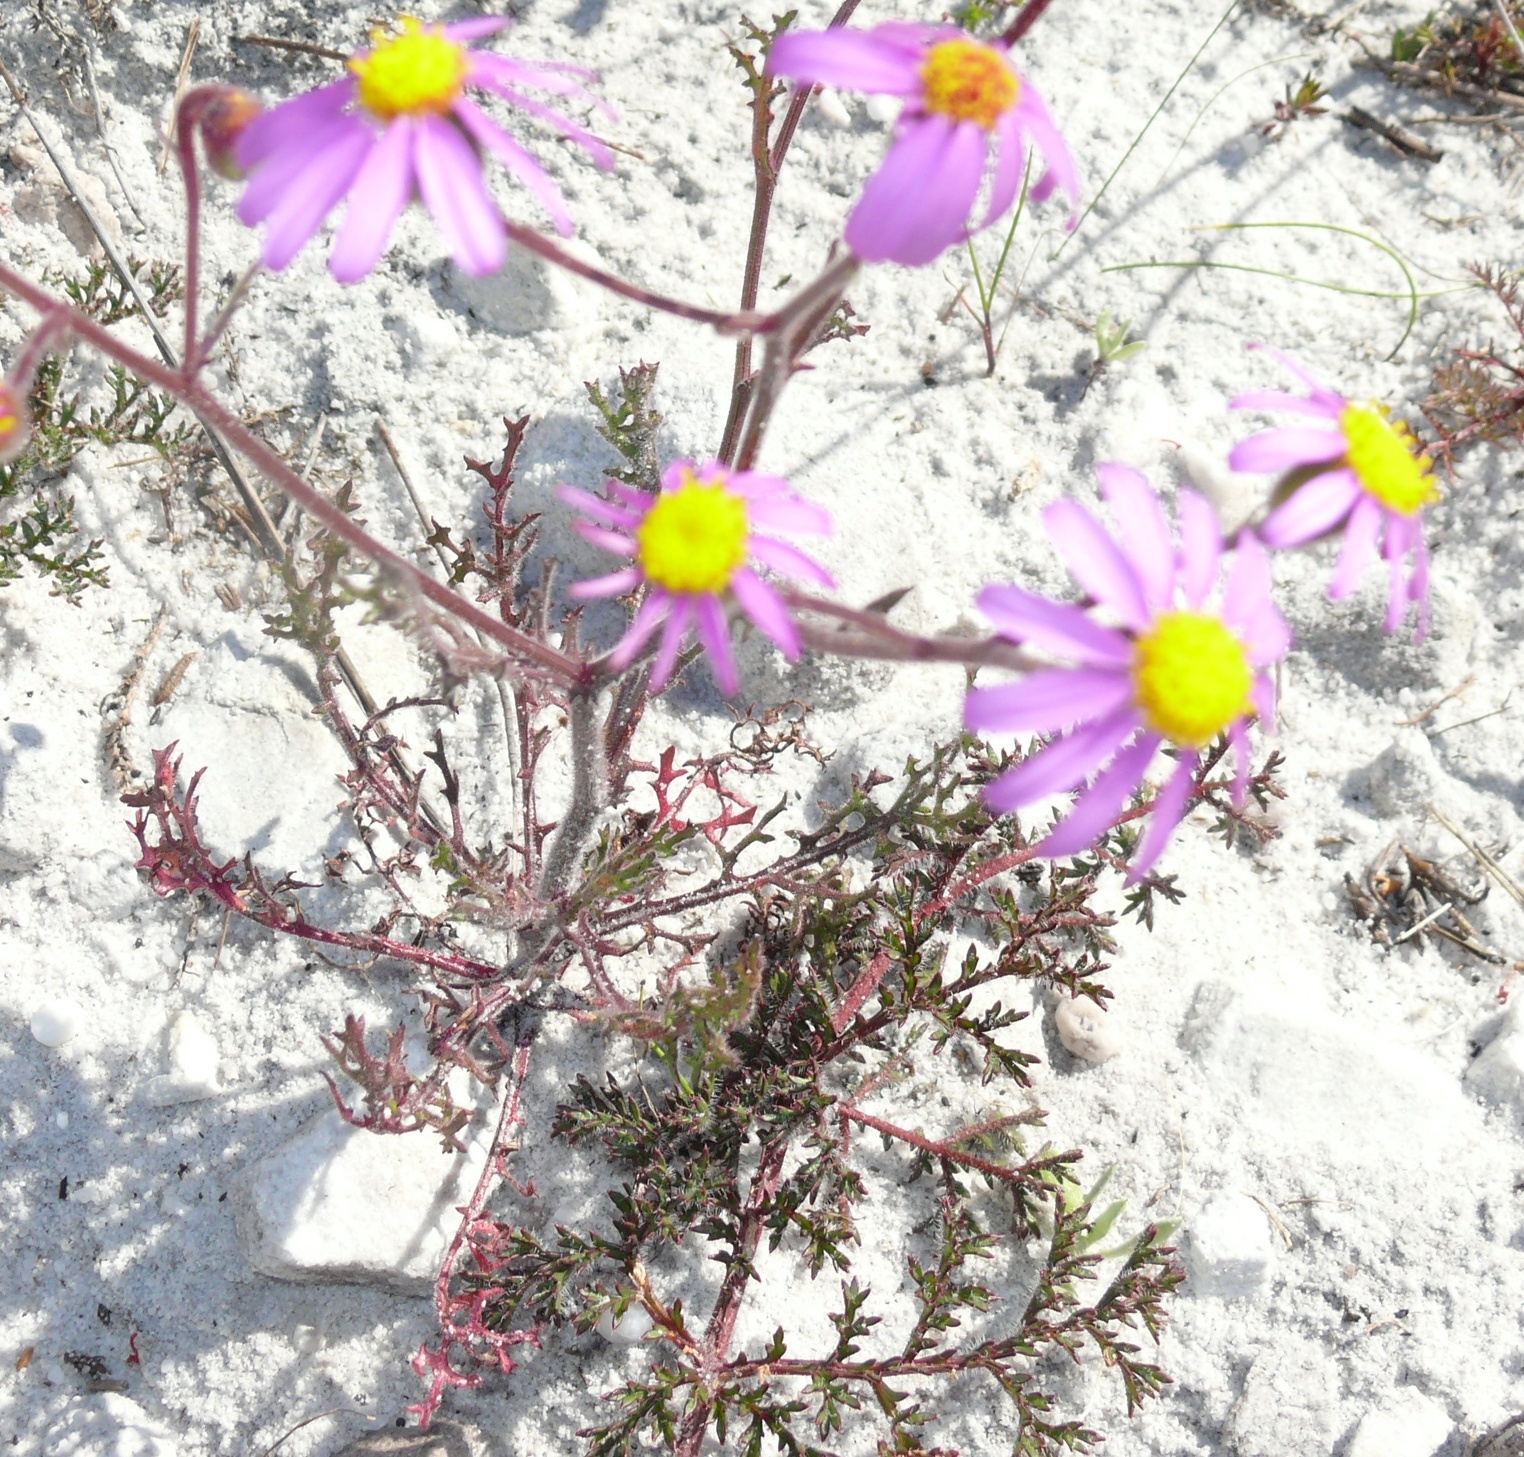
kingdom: Plantae
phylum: Tracheophyta
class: Magnoliopsida
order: Asterales
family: Asteraceae
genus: Senecio
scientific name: Senecio arenarius
